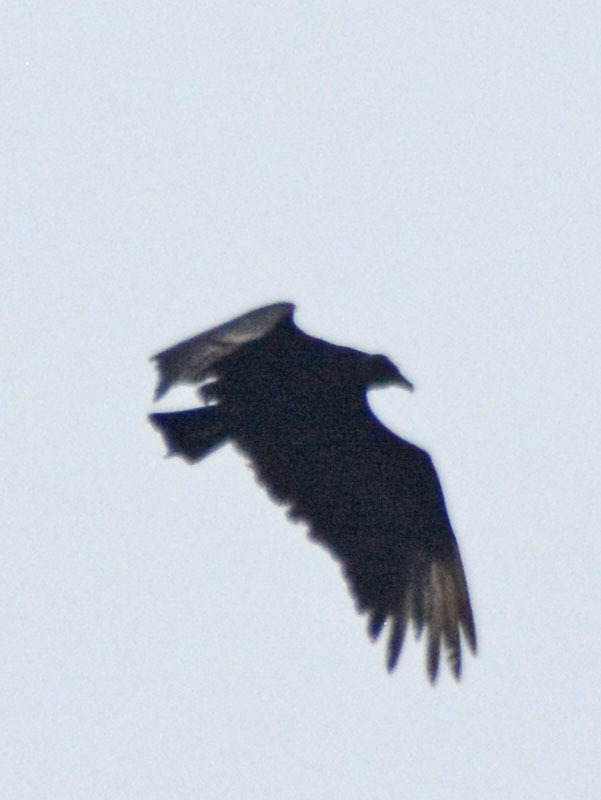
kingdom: Animalia
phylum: Chordata
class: Aves
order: Accipitriformes
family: Cathartidae
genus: Coragyps
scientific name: Coragyps atratus
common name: Black vulture
